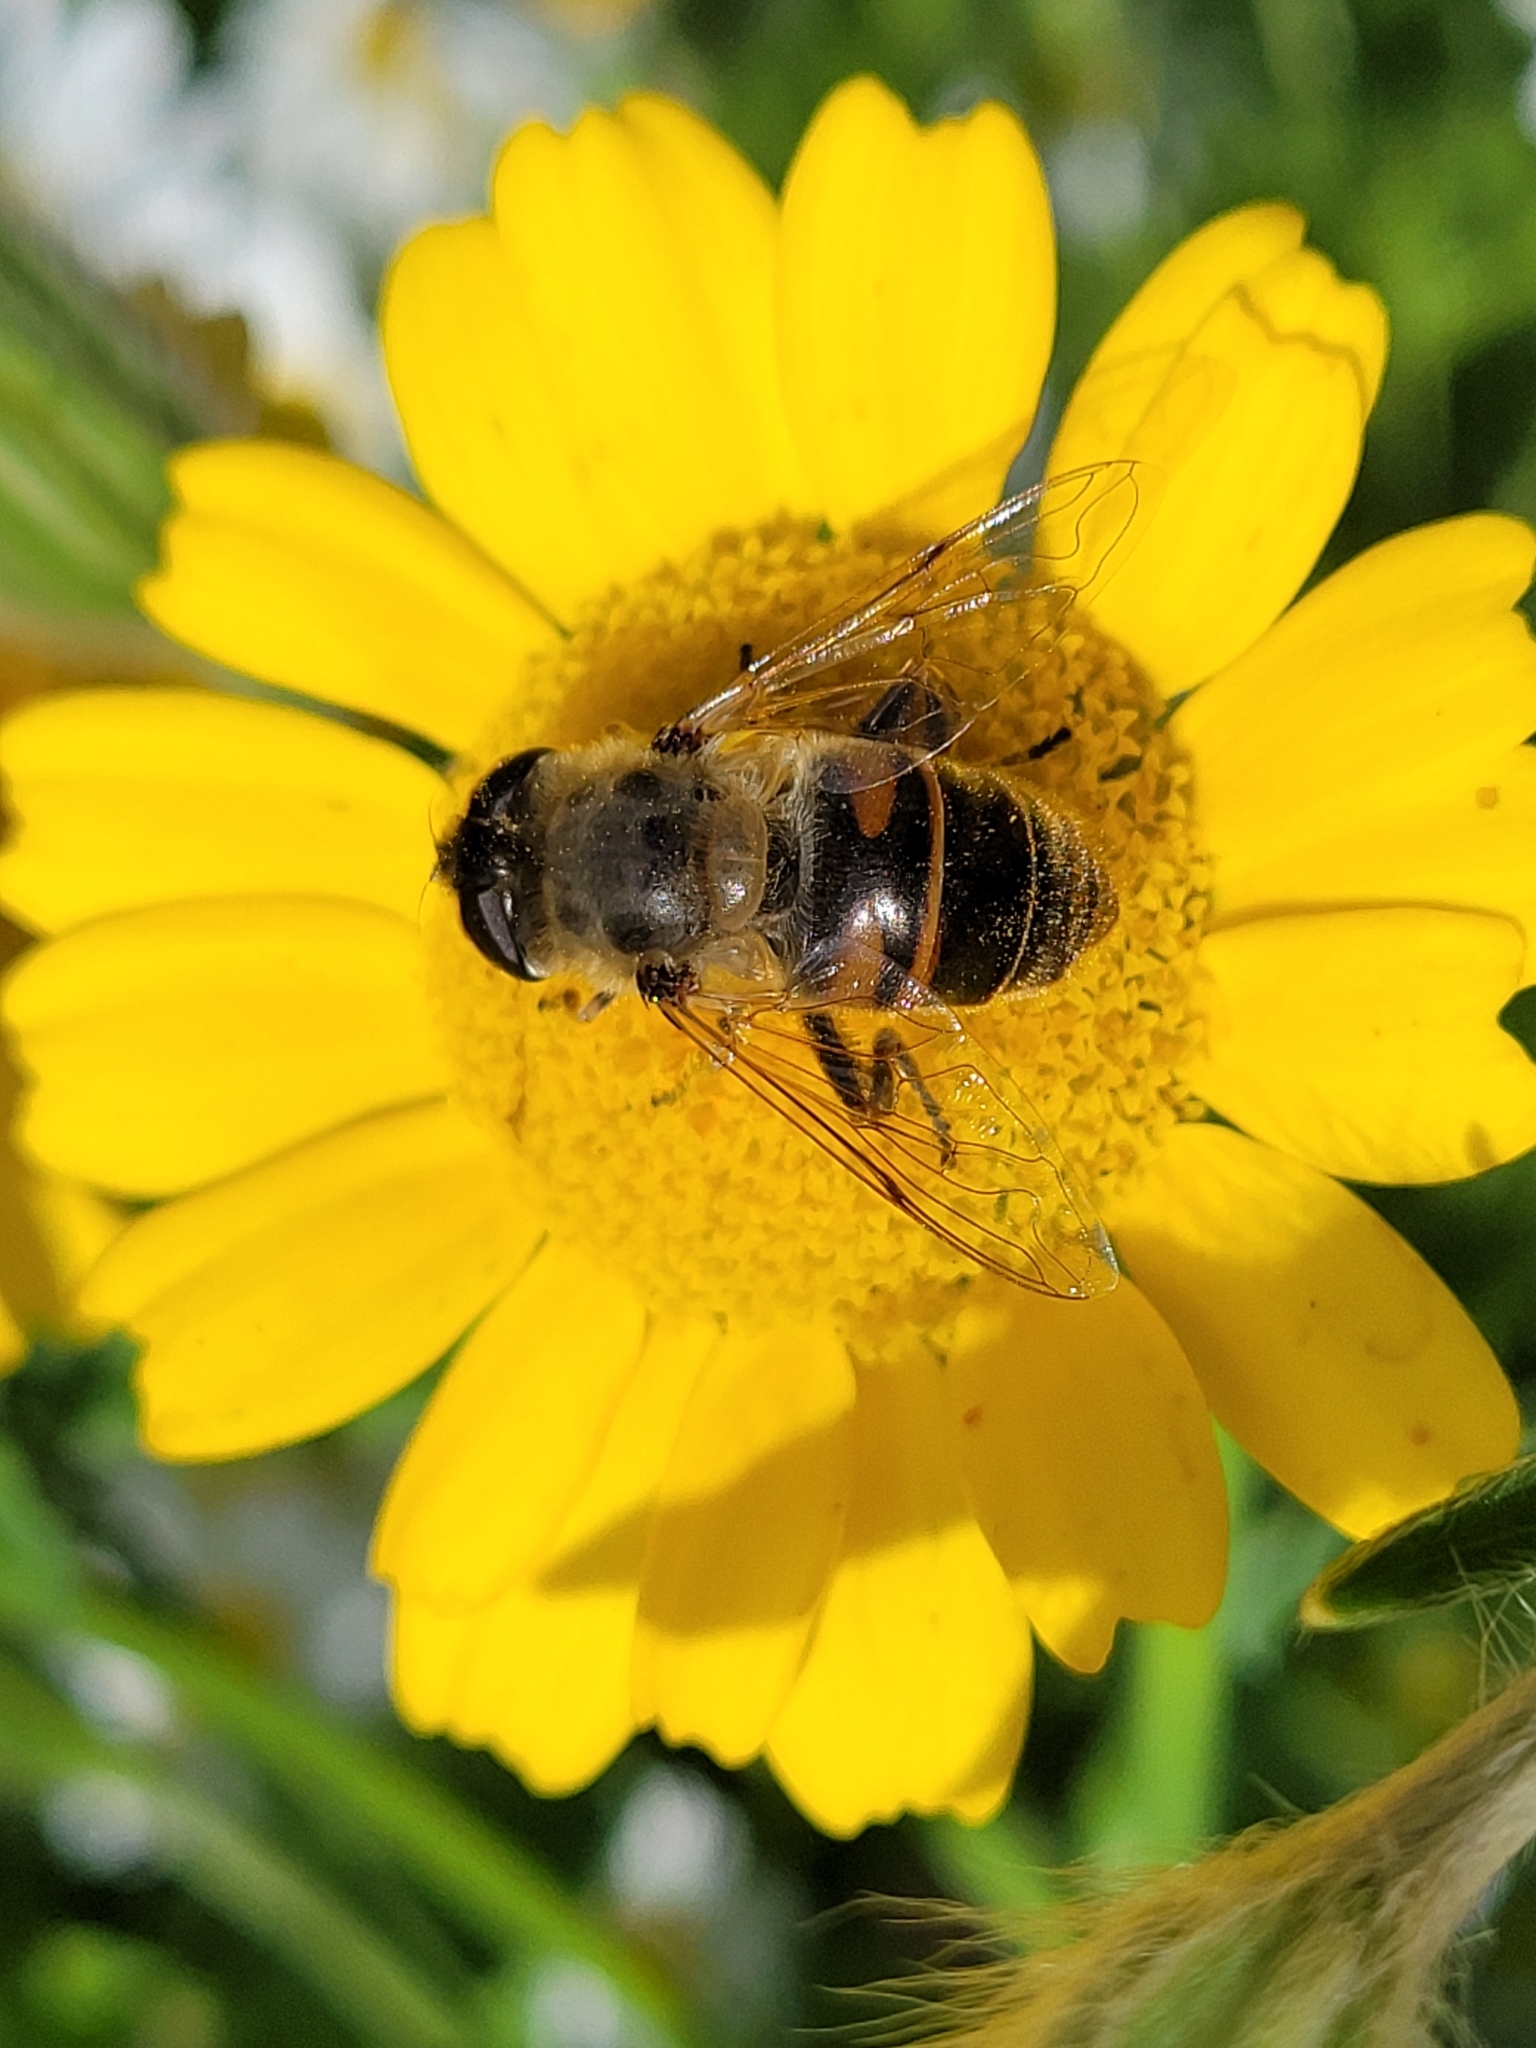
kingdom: Animalia
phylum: Arthropoda
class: Insecta
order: Diptera
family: Syrphidae
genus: Eristalis
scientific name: Eristalis tenax
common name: Drone fly
